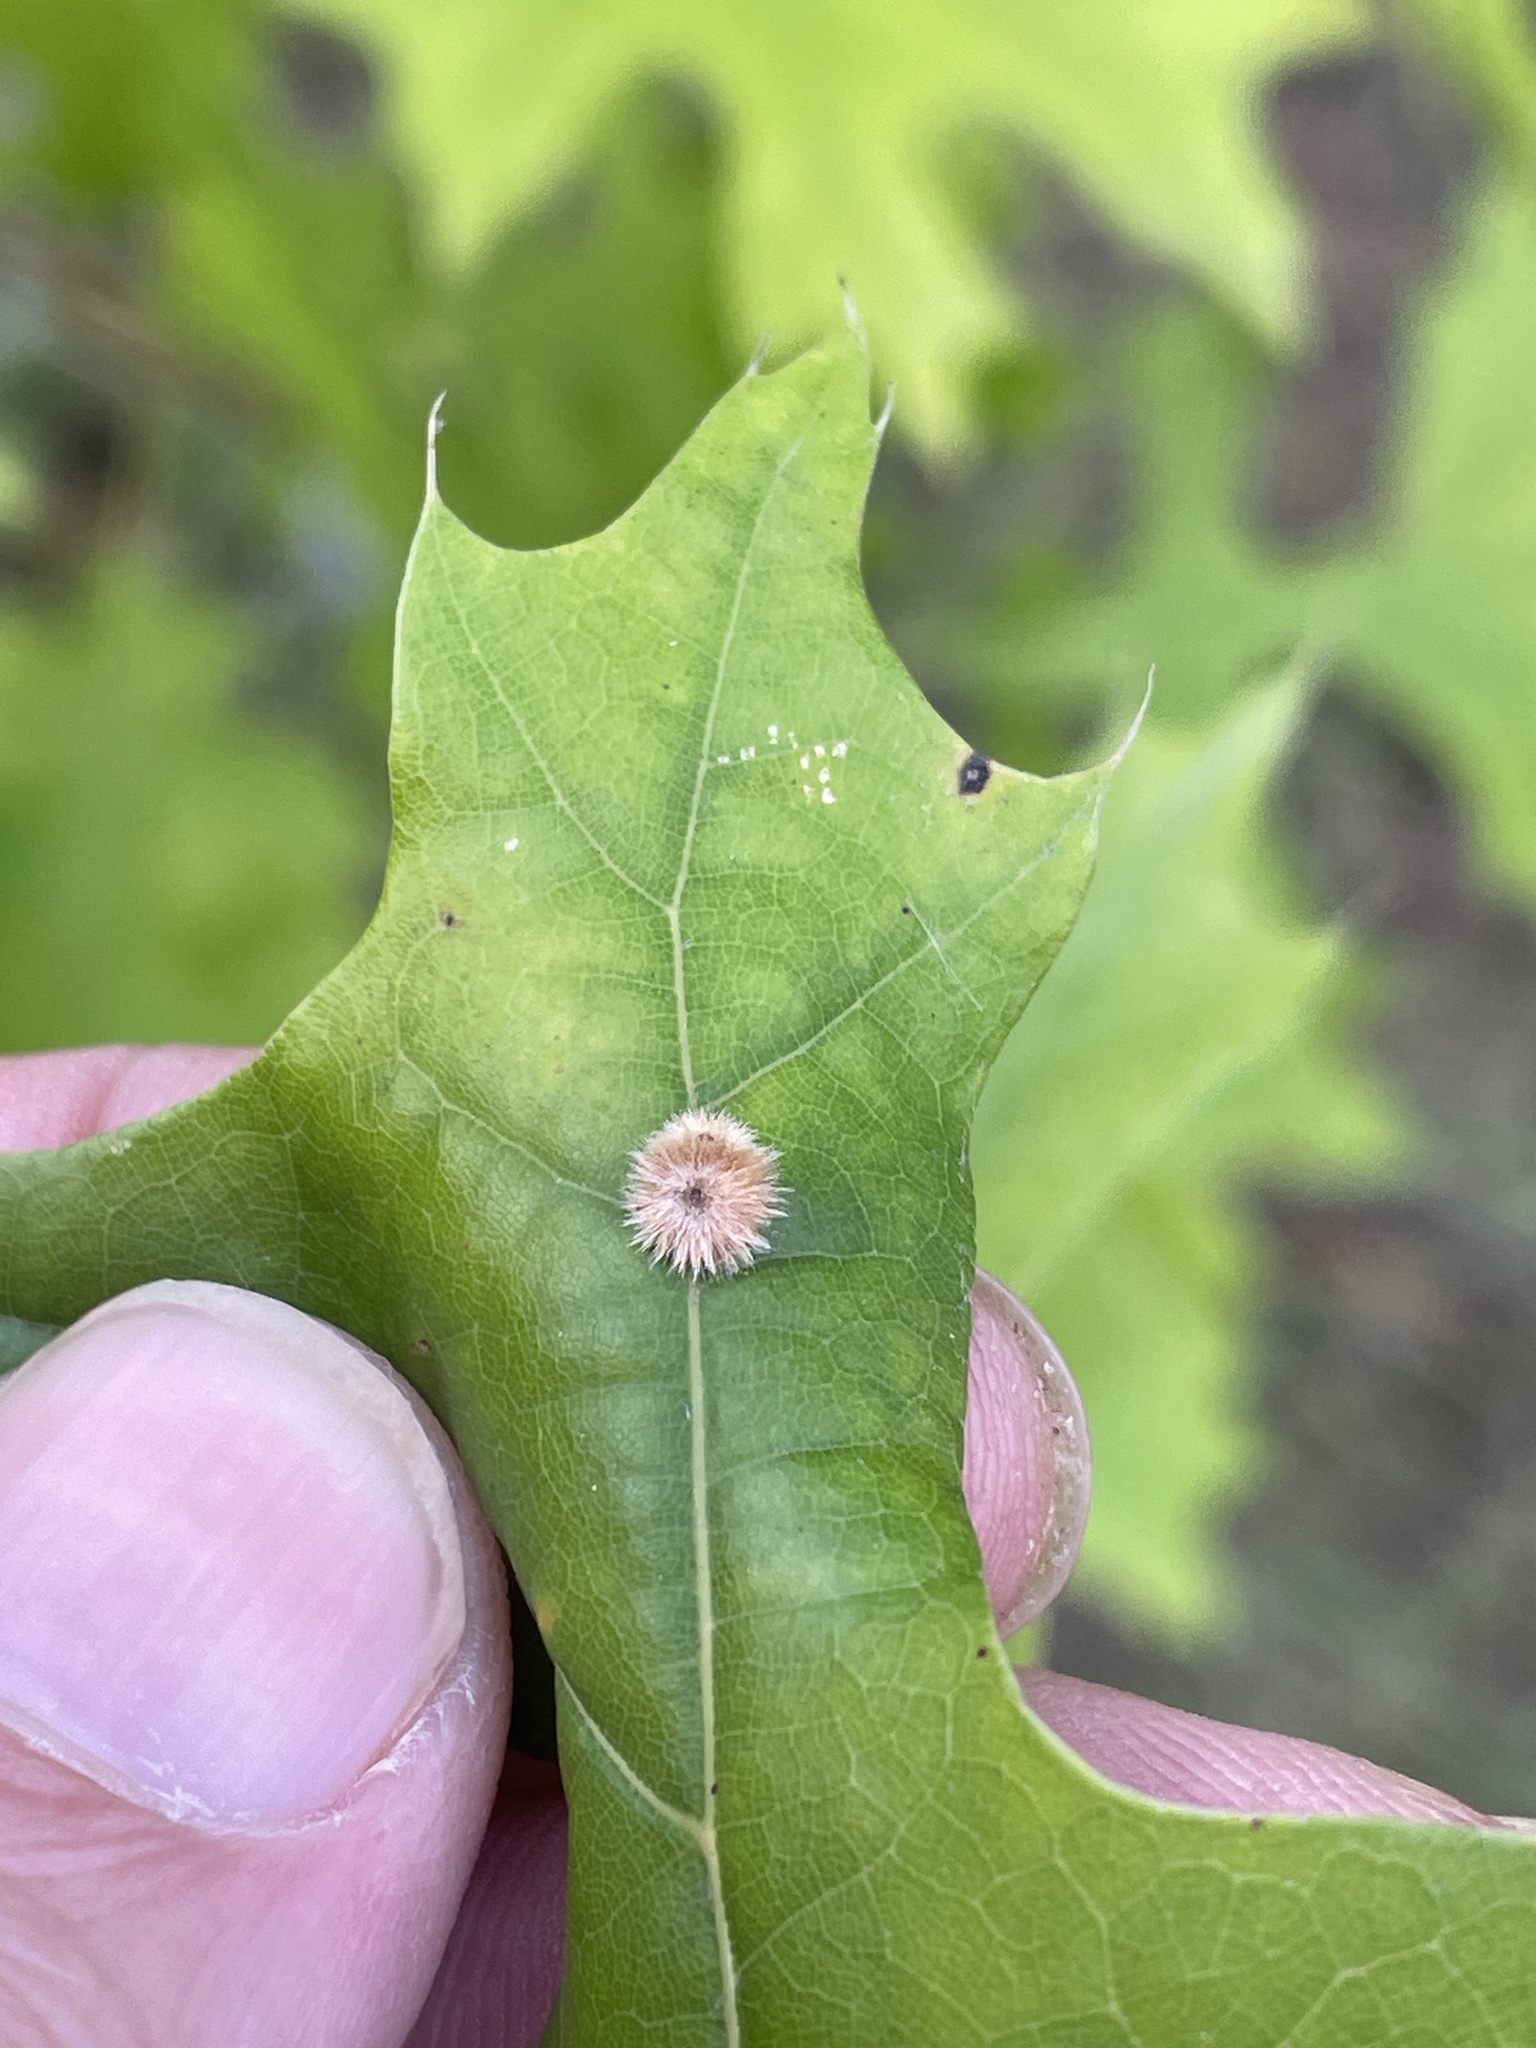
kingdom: Animalia
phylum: Arthropoda
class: Insecta
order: Hymenoptera
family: Cynipidae
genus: Callirhytis
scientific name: Callirhytis
